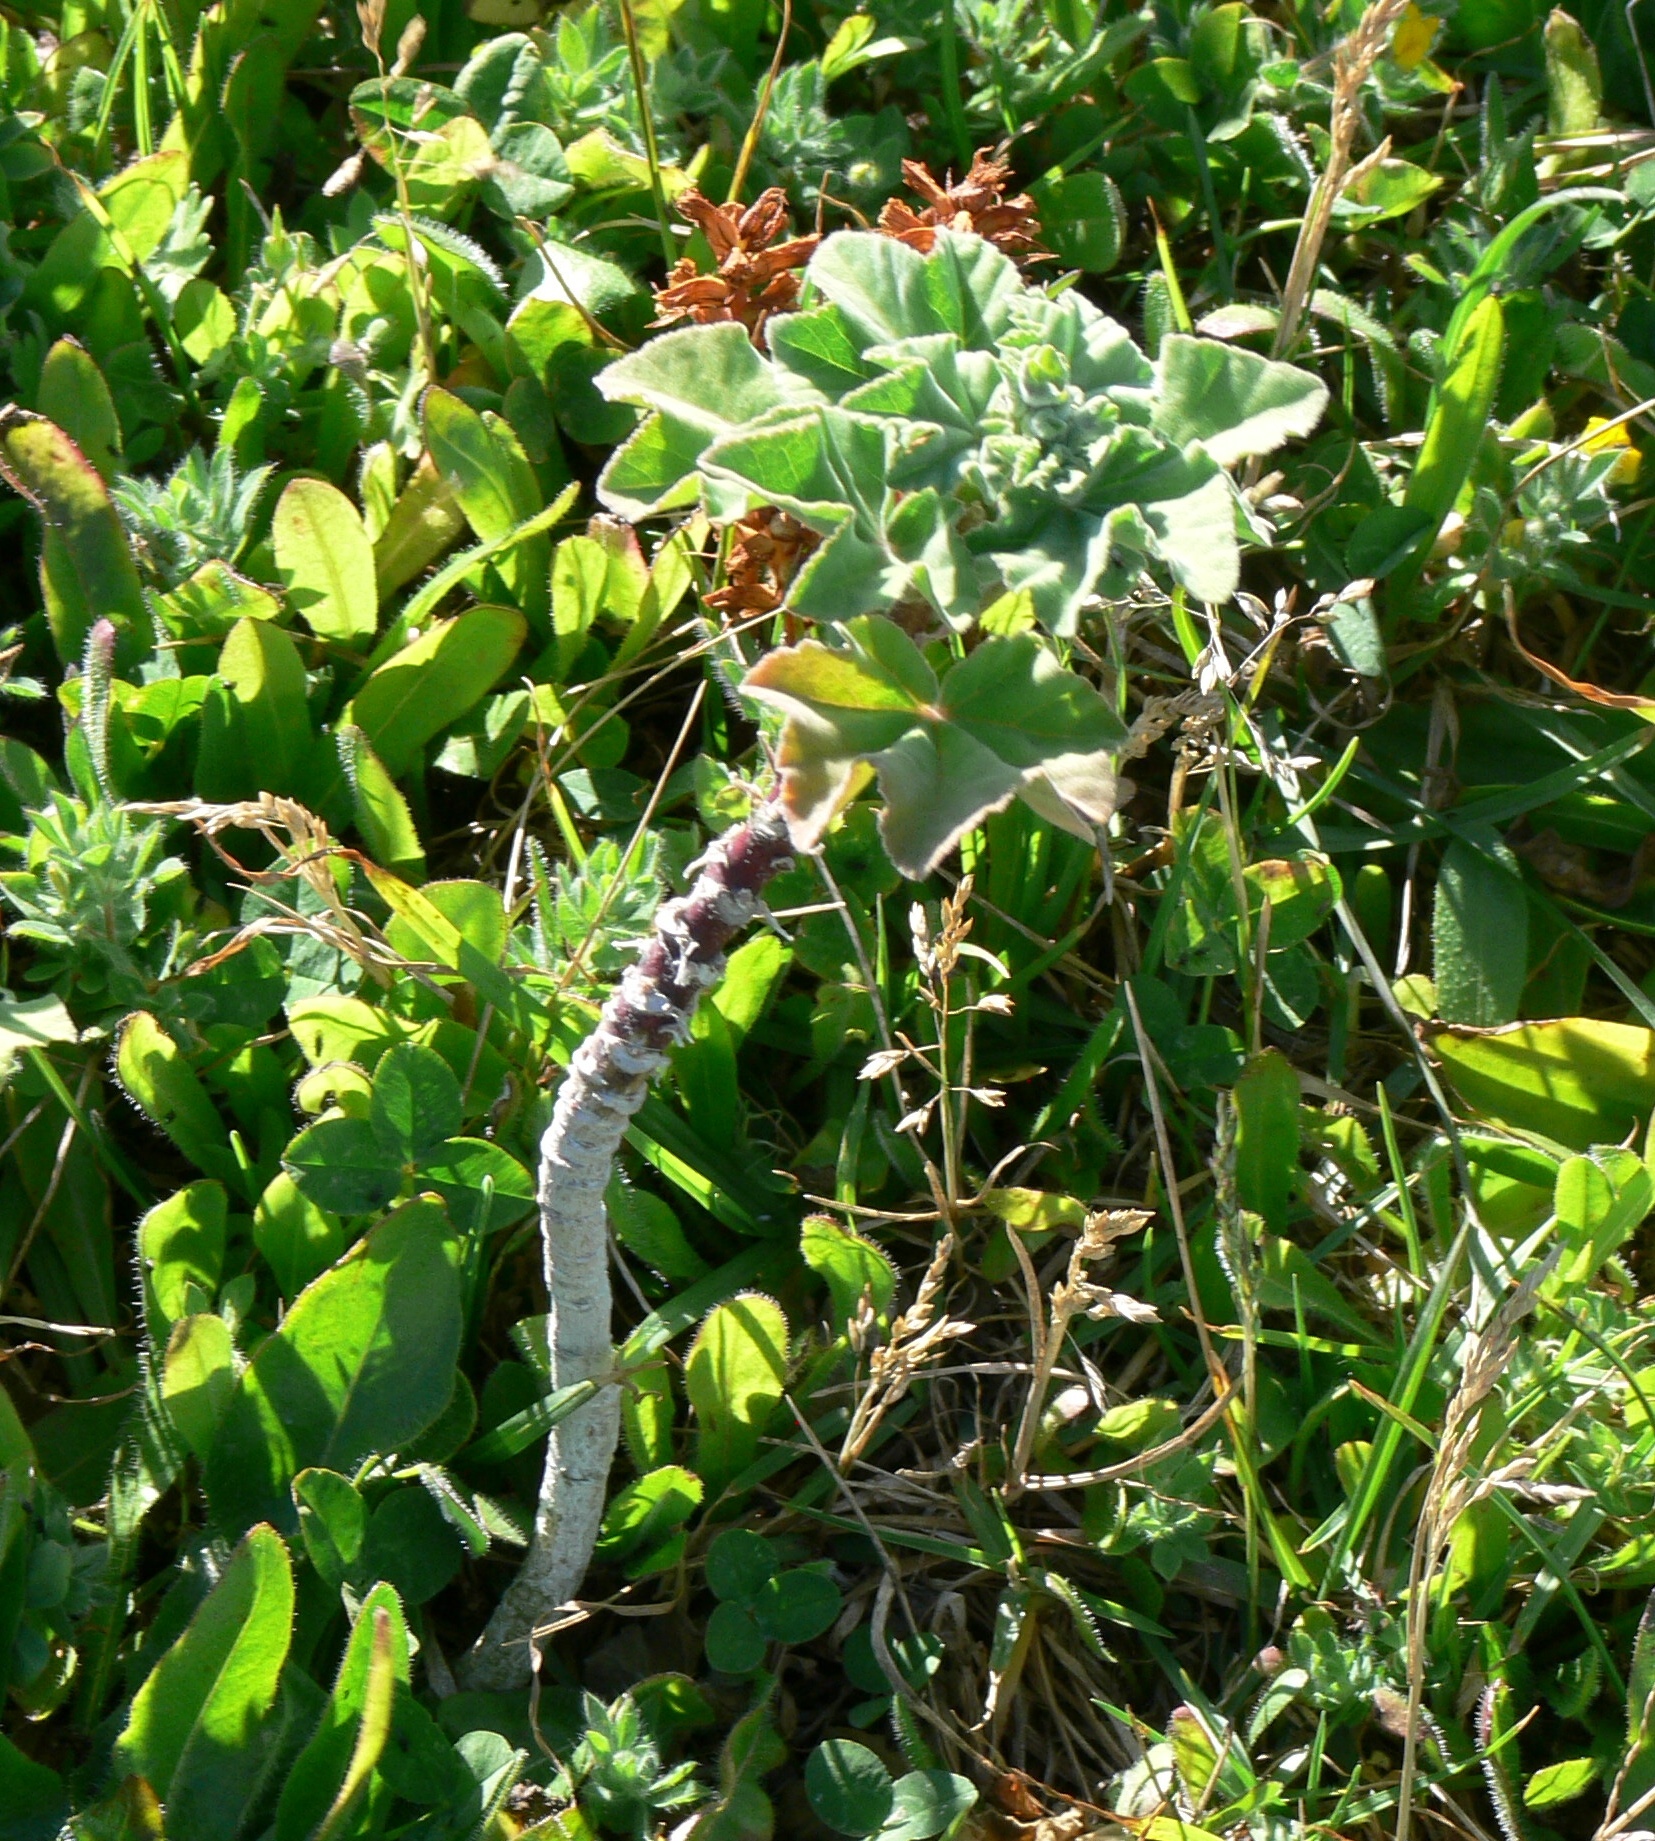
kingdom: Plantae
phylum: Tracheophyta
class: Magnoliopsida
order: Malvales
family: Malvaceae
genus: Malva
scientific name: Malva arborea
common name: Tree mallow
